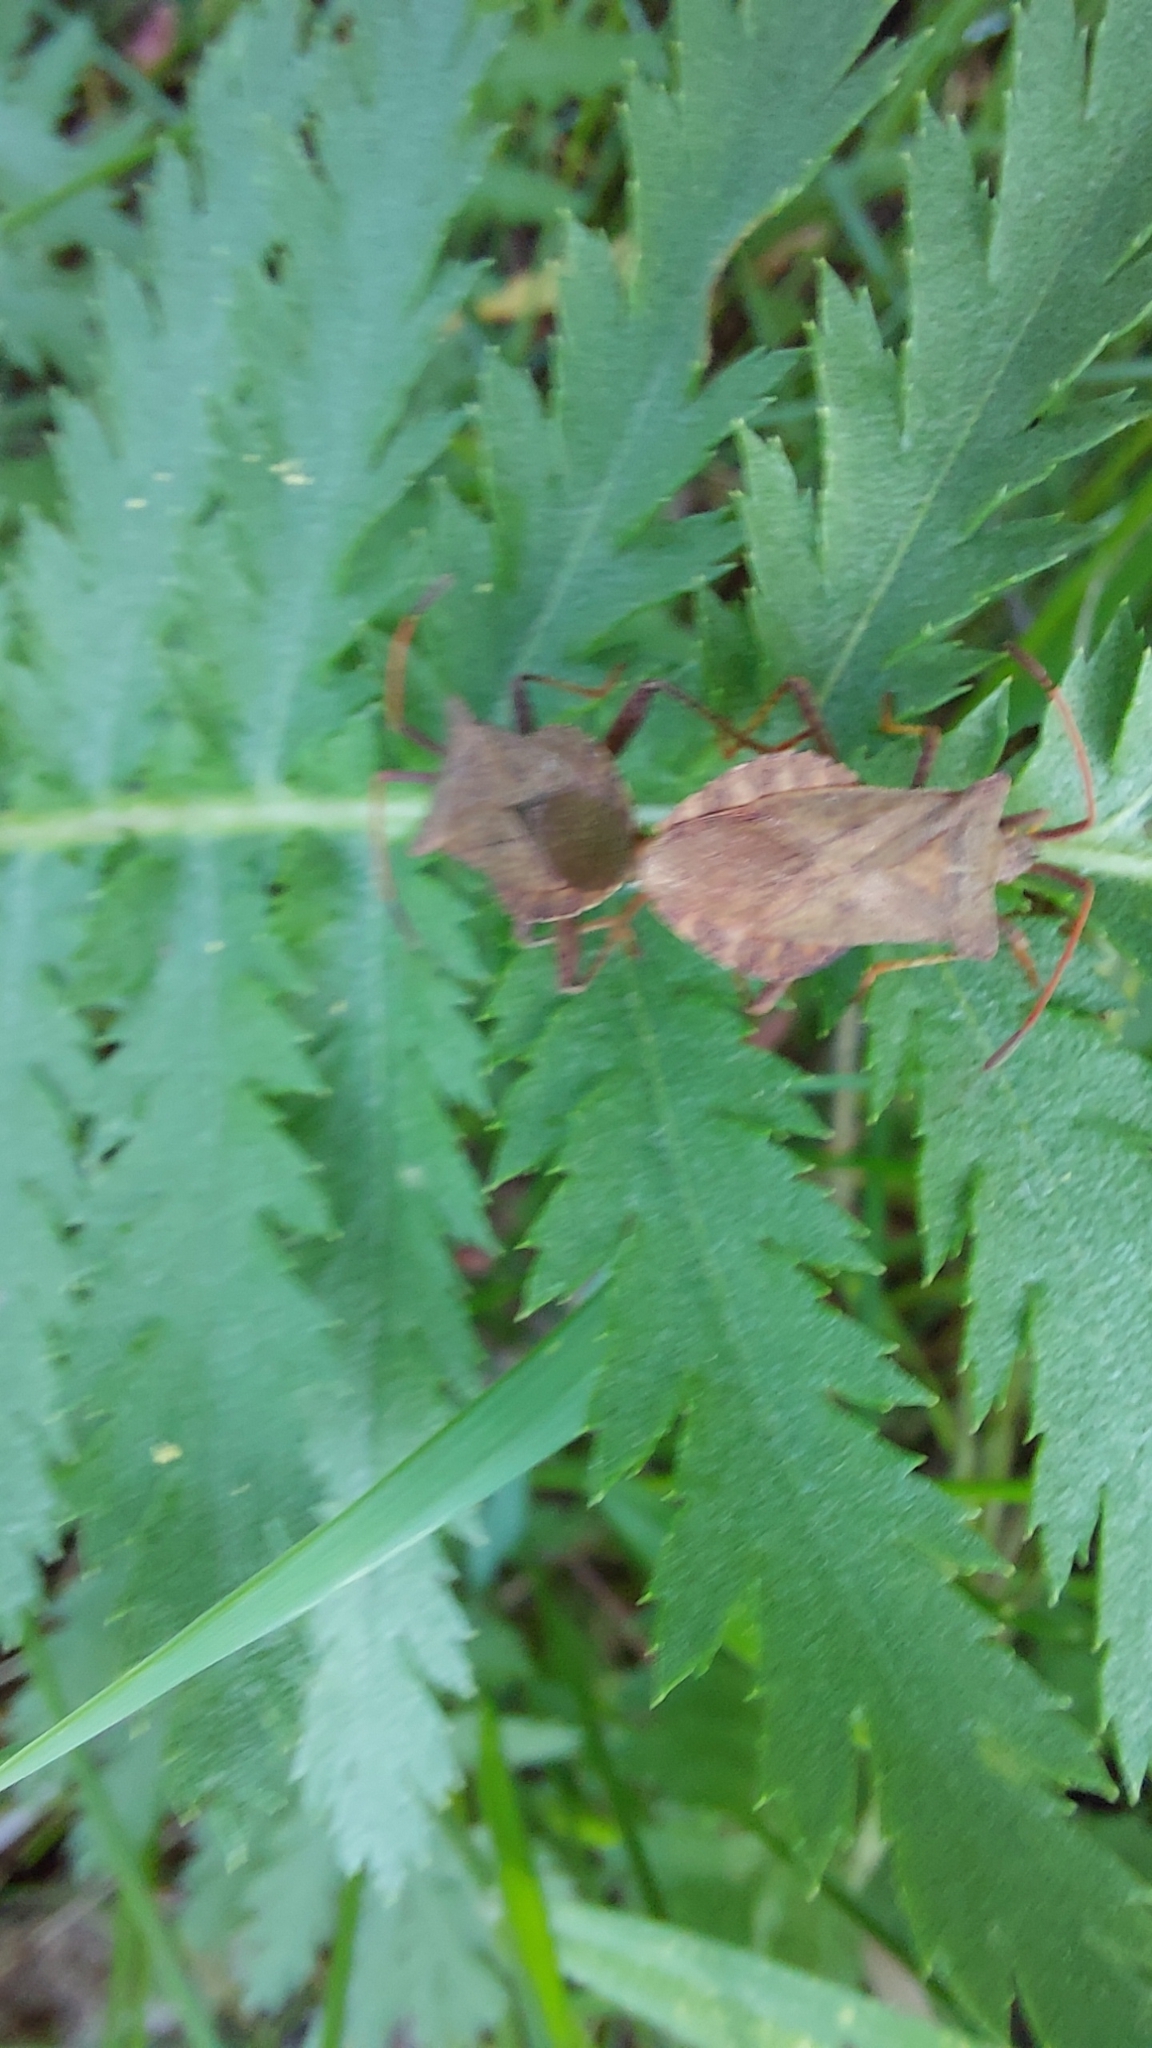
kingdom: Animalia
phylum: Arthropoda
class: Insecta
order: Hemiptera
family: Coreidae
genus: Coreus
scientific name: Coreus marginatus
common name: Dock bug
